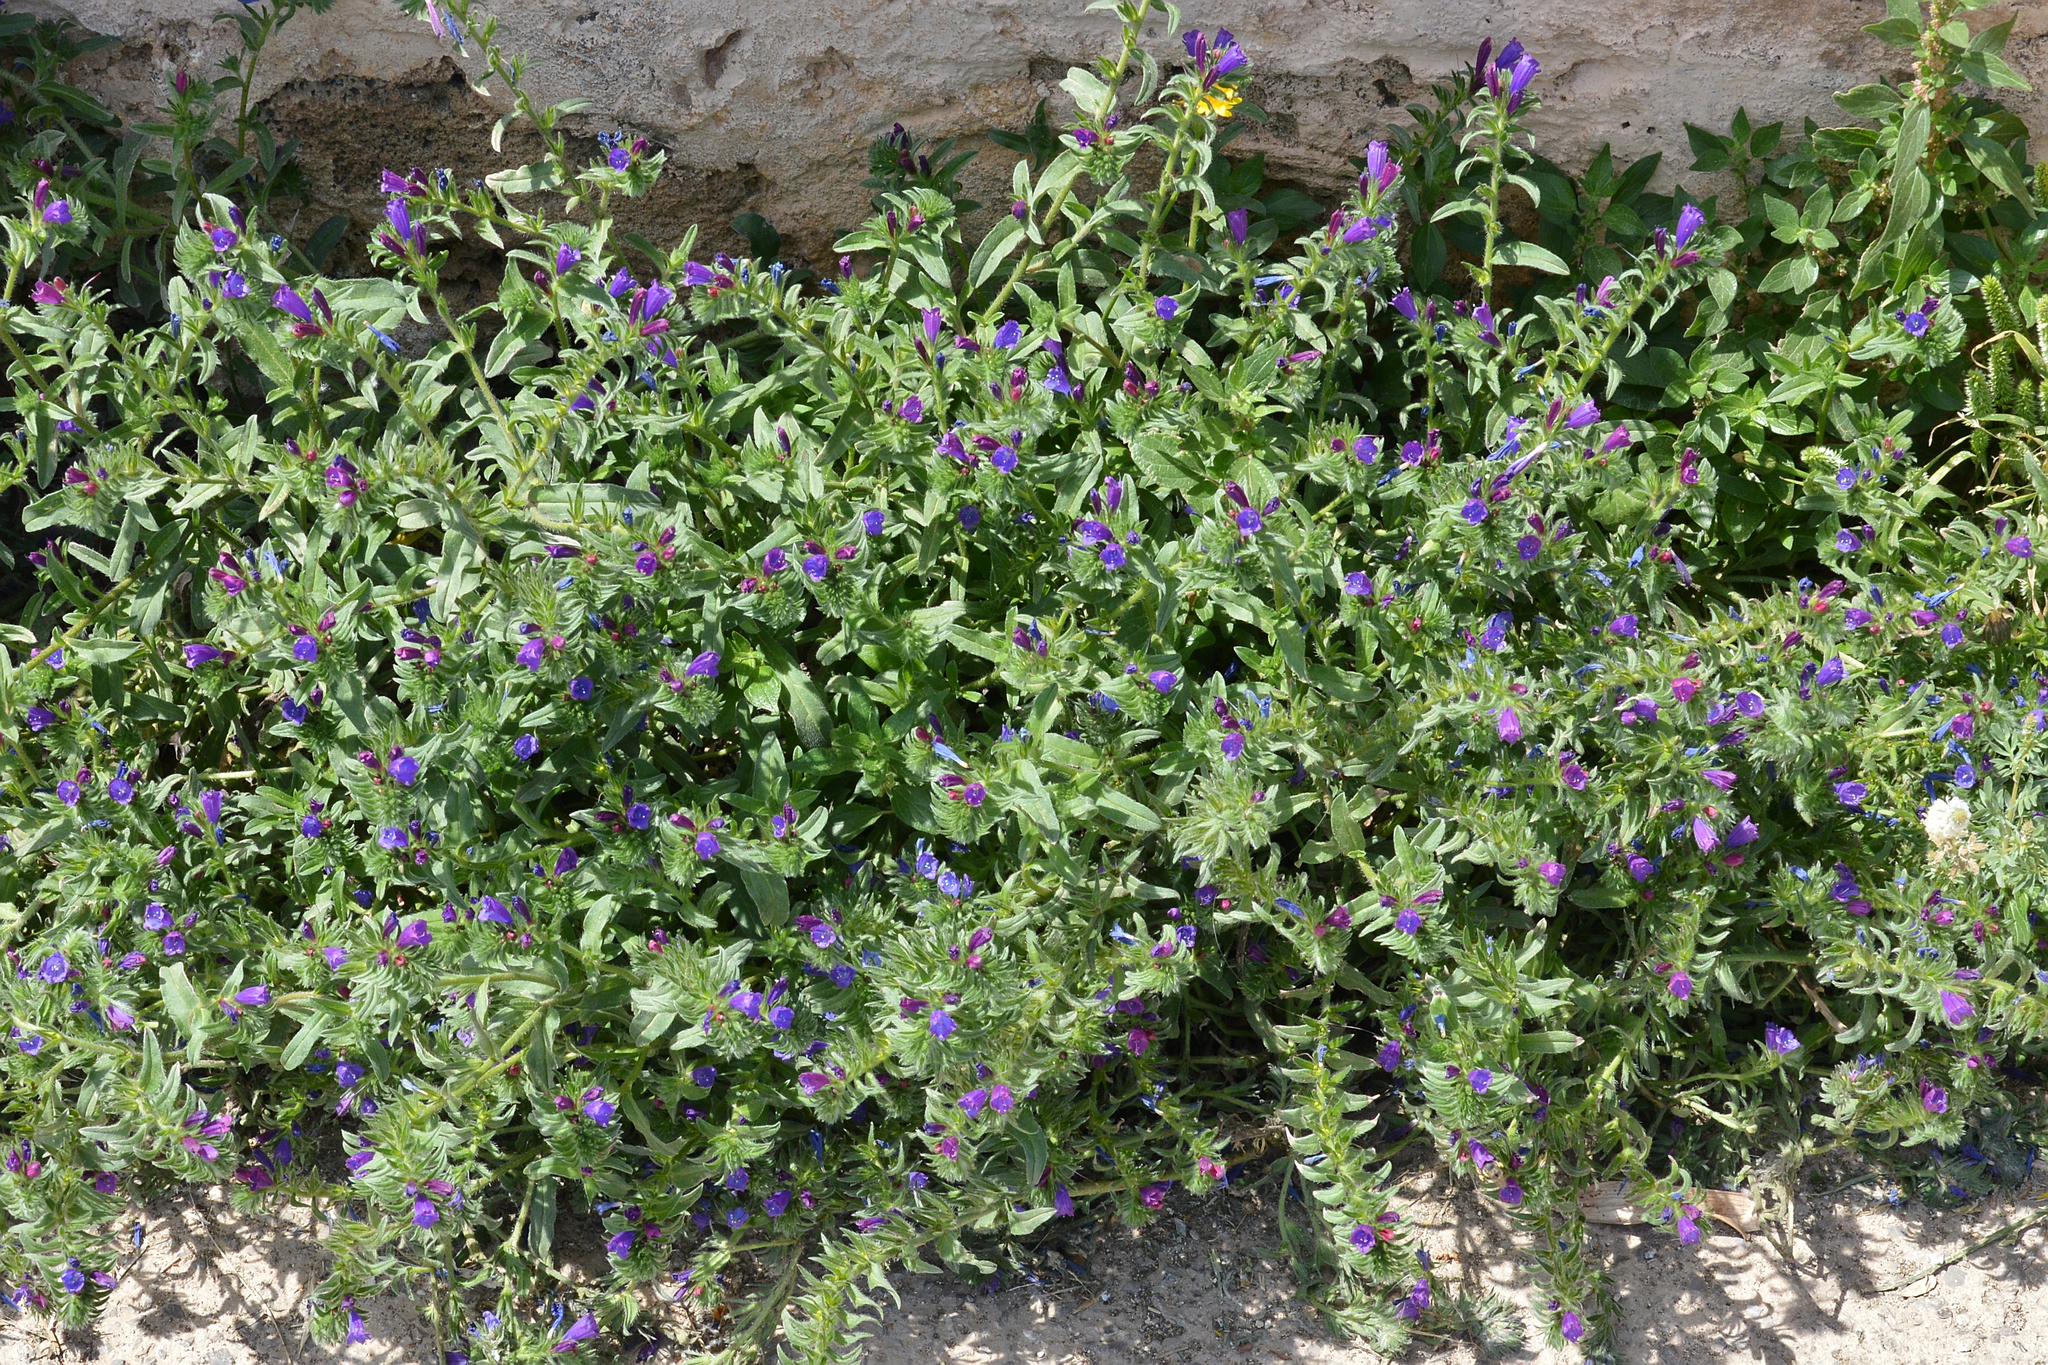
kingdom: Plantae
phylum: Tracheophyta
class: Magnoliopsida
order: Boraginales
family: Boraginaceae
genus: Echium
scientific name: Echium sabulicola
